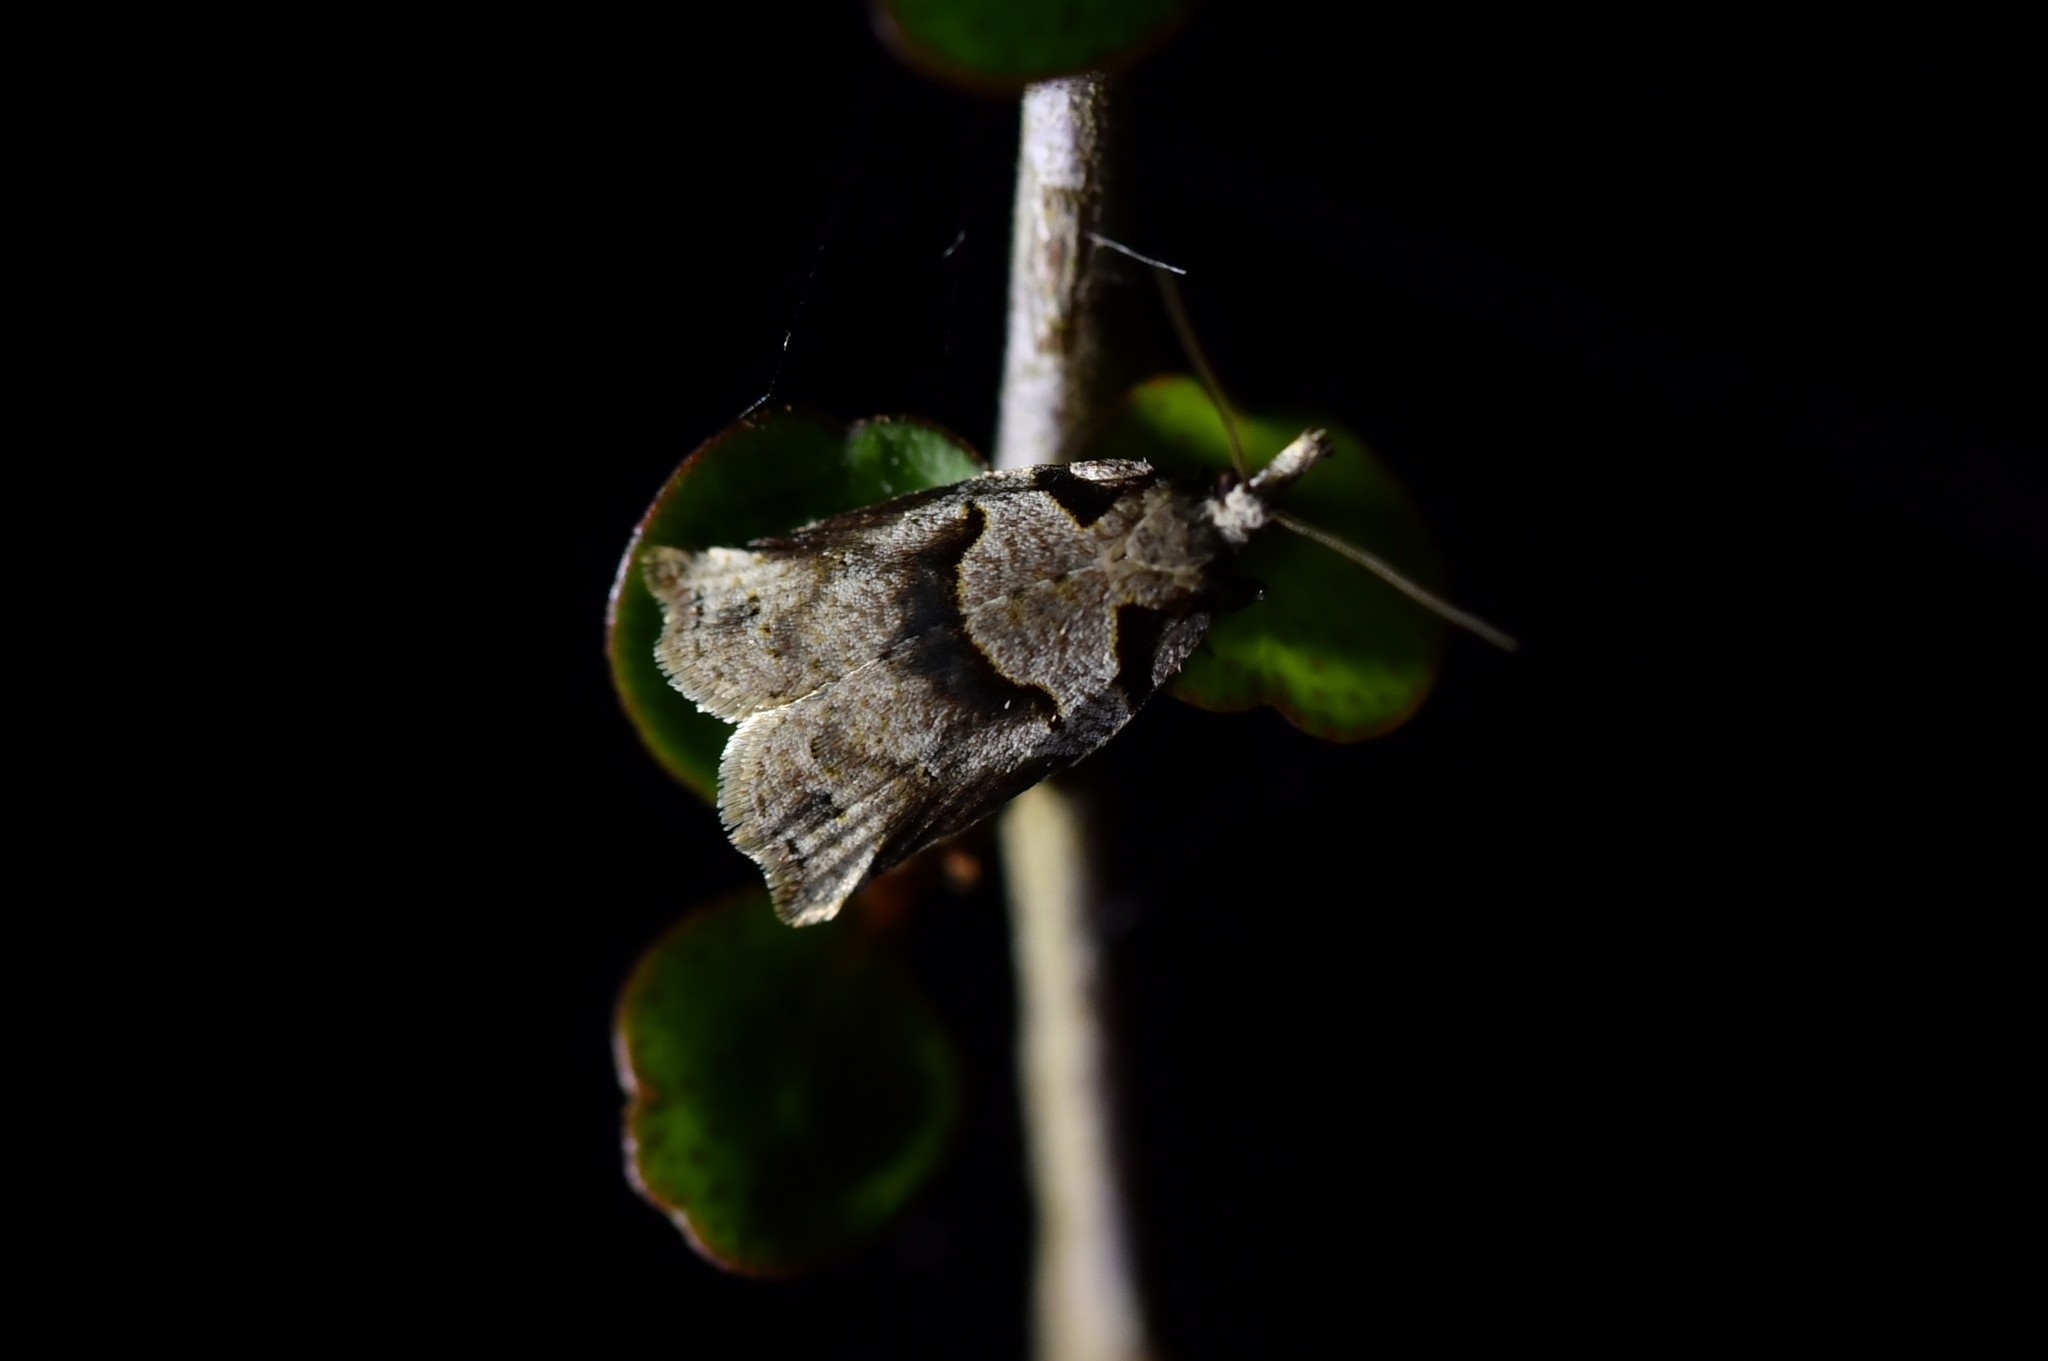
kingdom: Animalia
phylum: Arthropoda
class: Insecta
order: Lepidoptera
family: Tortricidae
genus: Harmologa
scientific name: Harmologa amplexana
